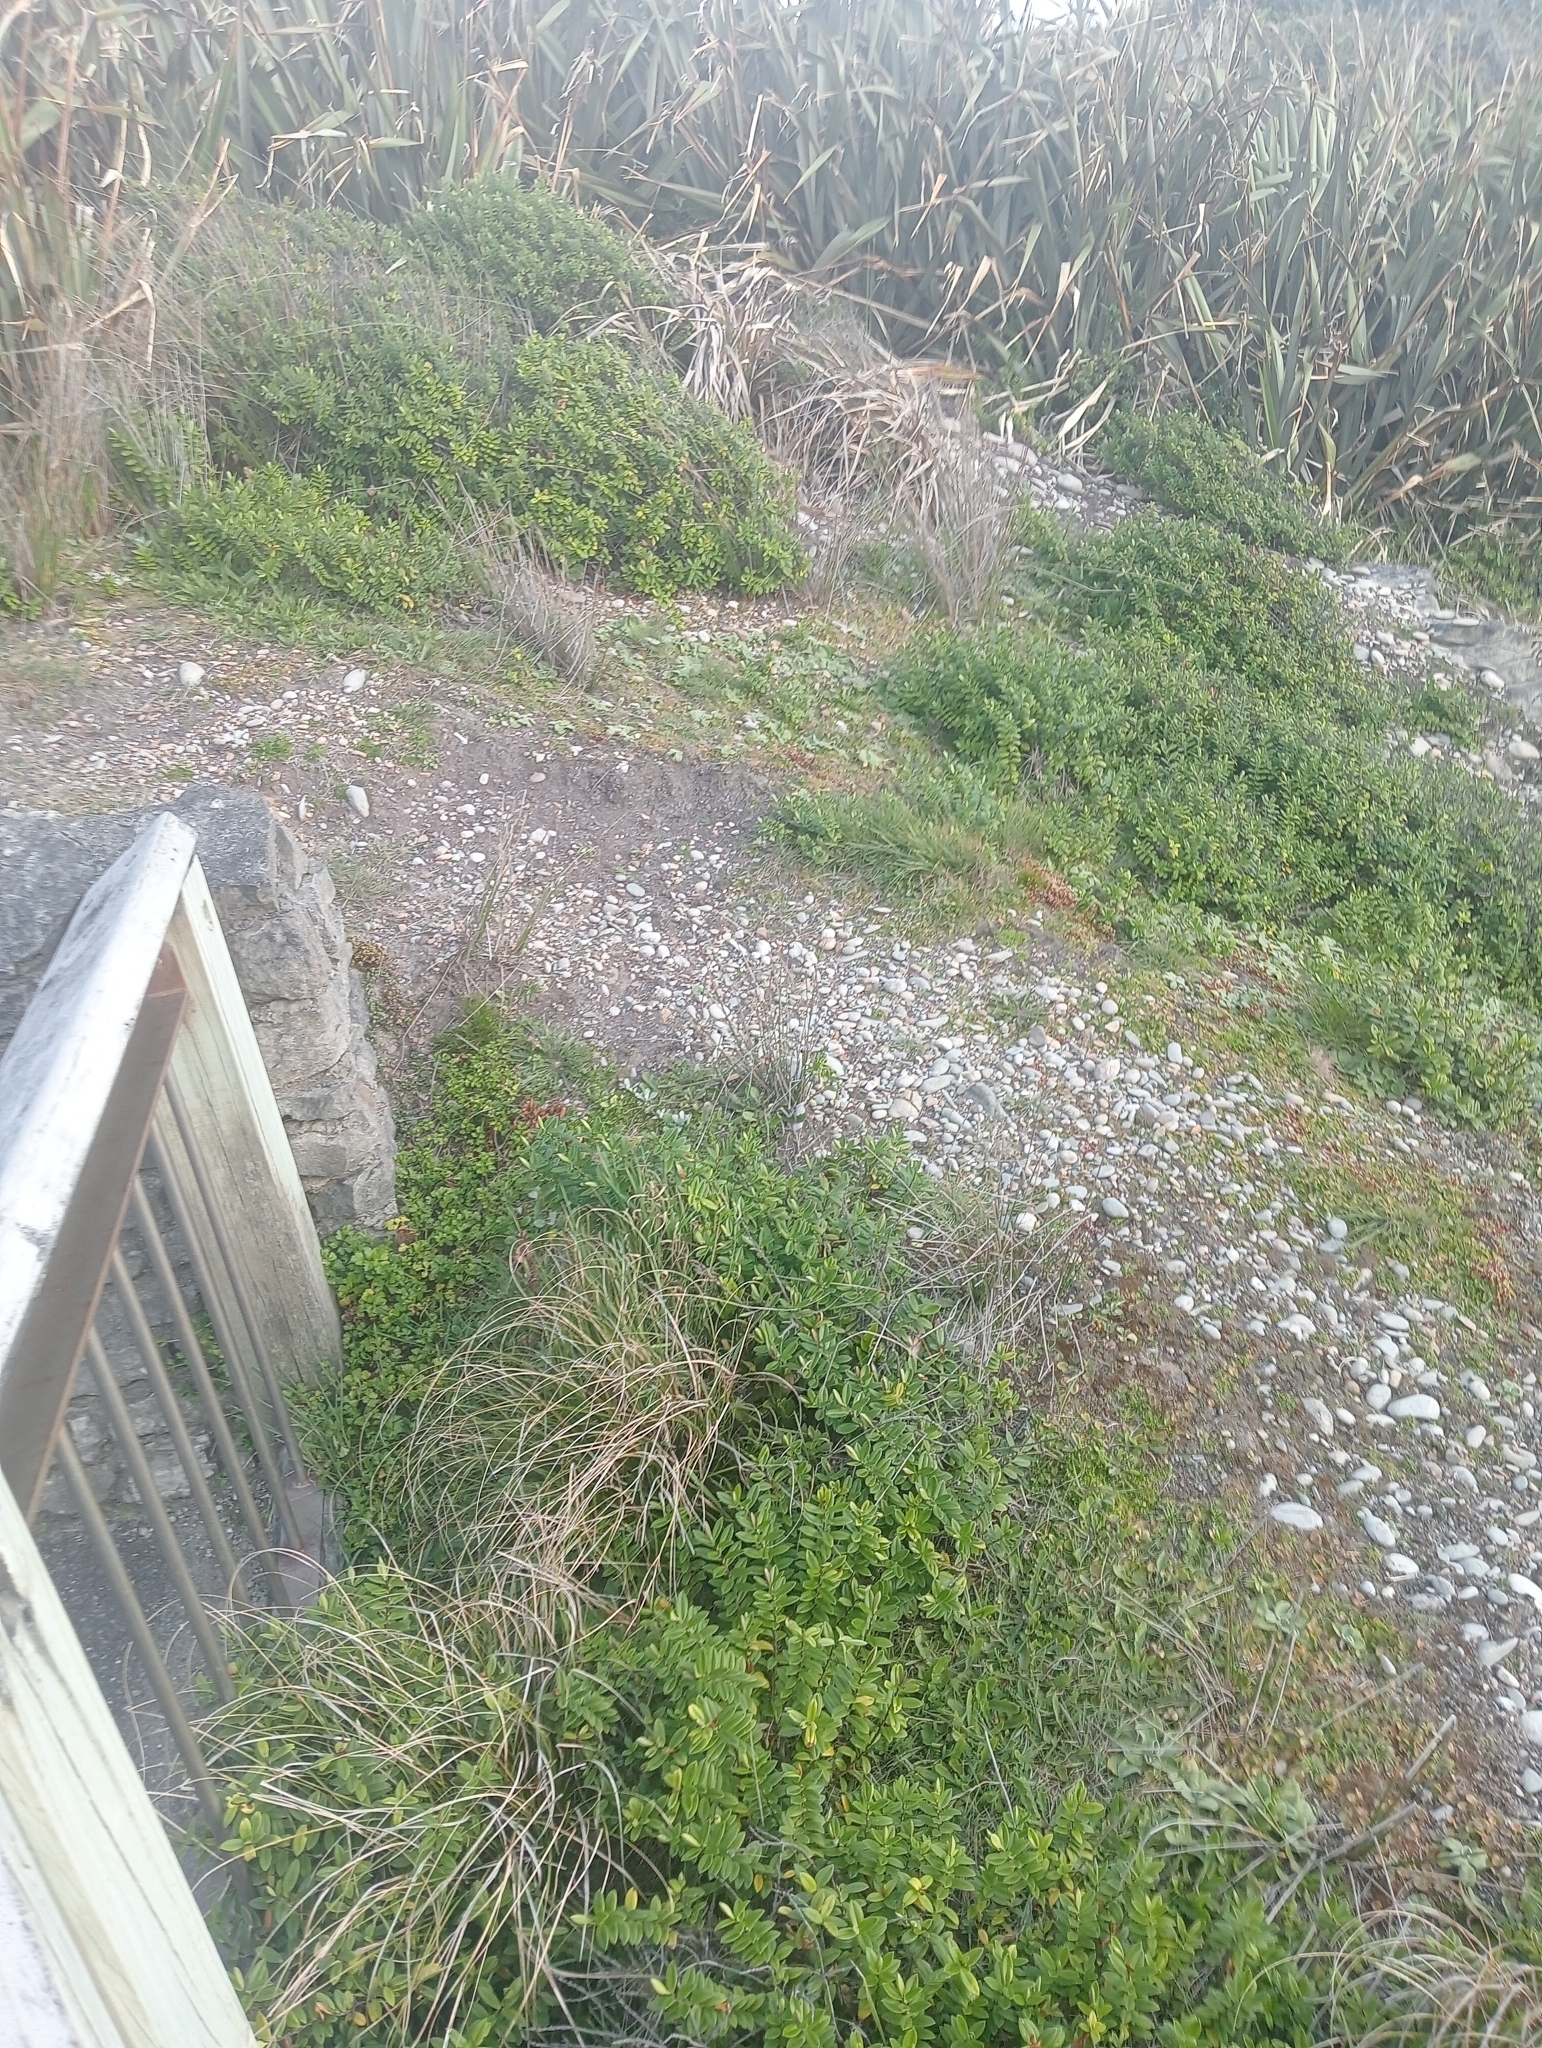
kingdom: Plantae
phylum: Tracheophyta
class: Magnoliopsida
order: Lamiales
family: Plantaginaceae
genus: Veronica
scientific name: Veronica elliptica
